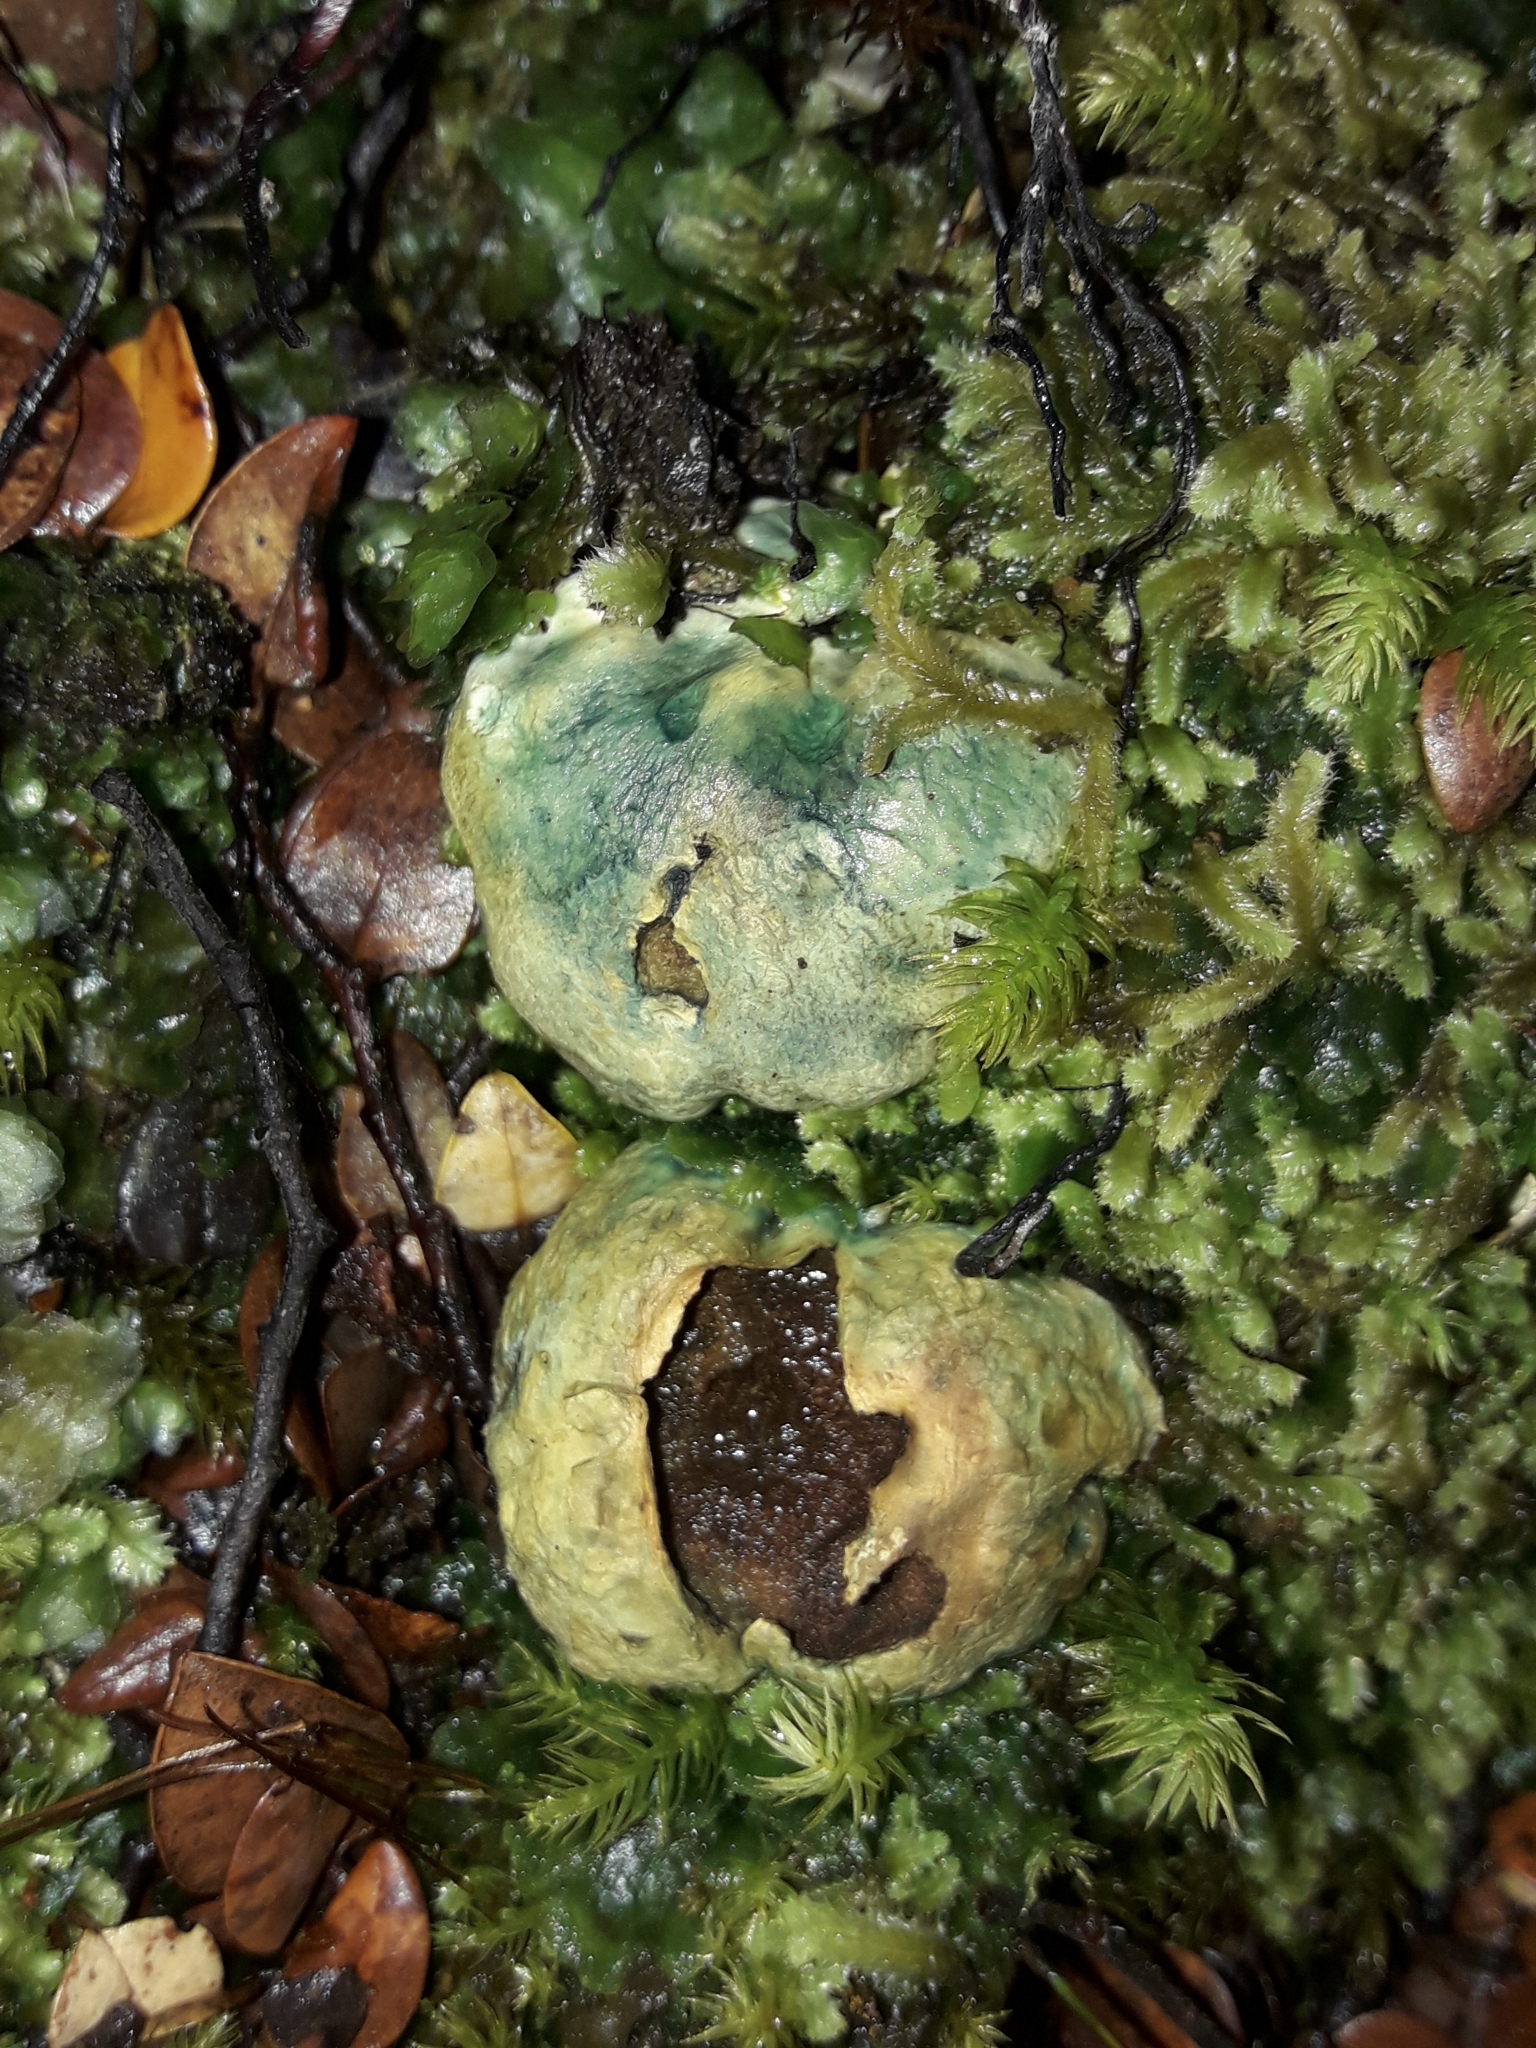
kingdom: Fungi
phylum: Basidiomycota
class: Agaricomycetes
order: Boletales
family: Boletaceae
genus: Leccinum
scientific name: Leccinum pachyderme
